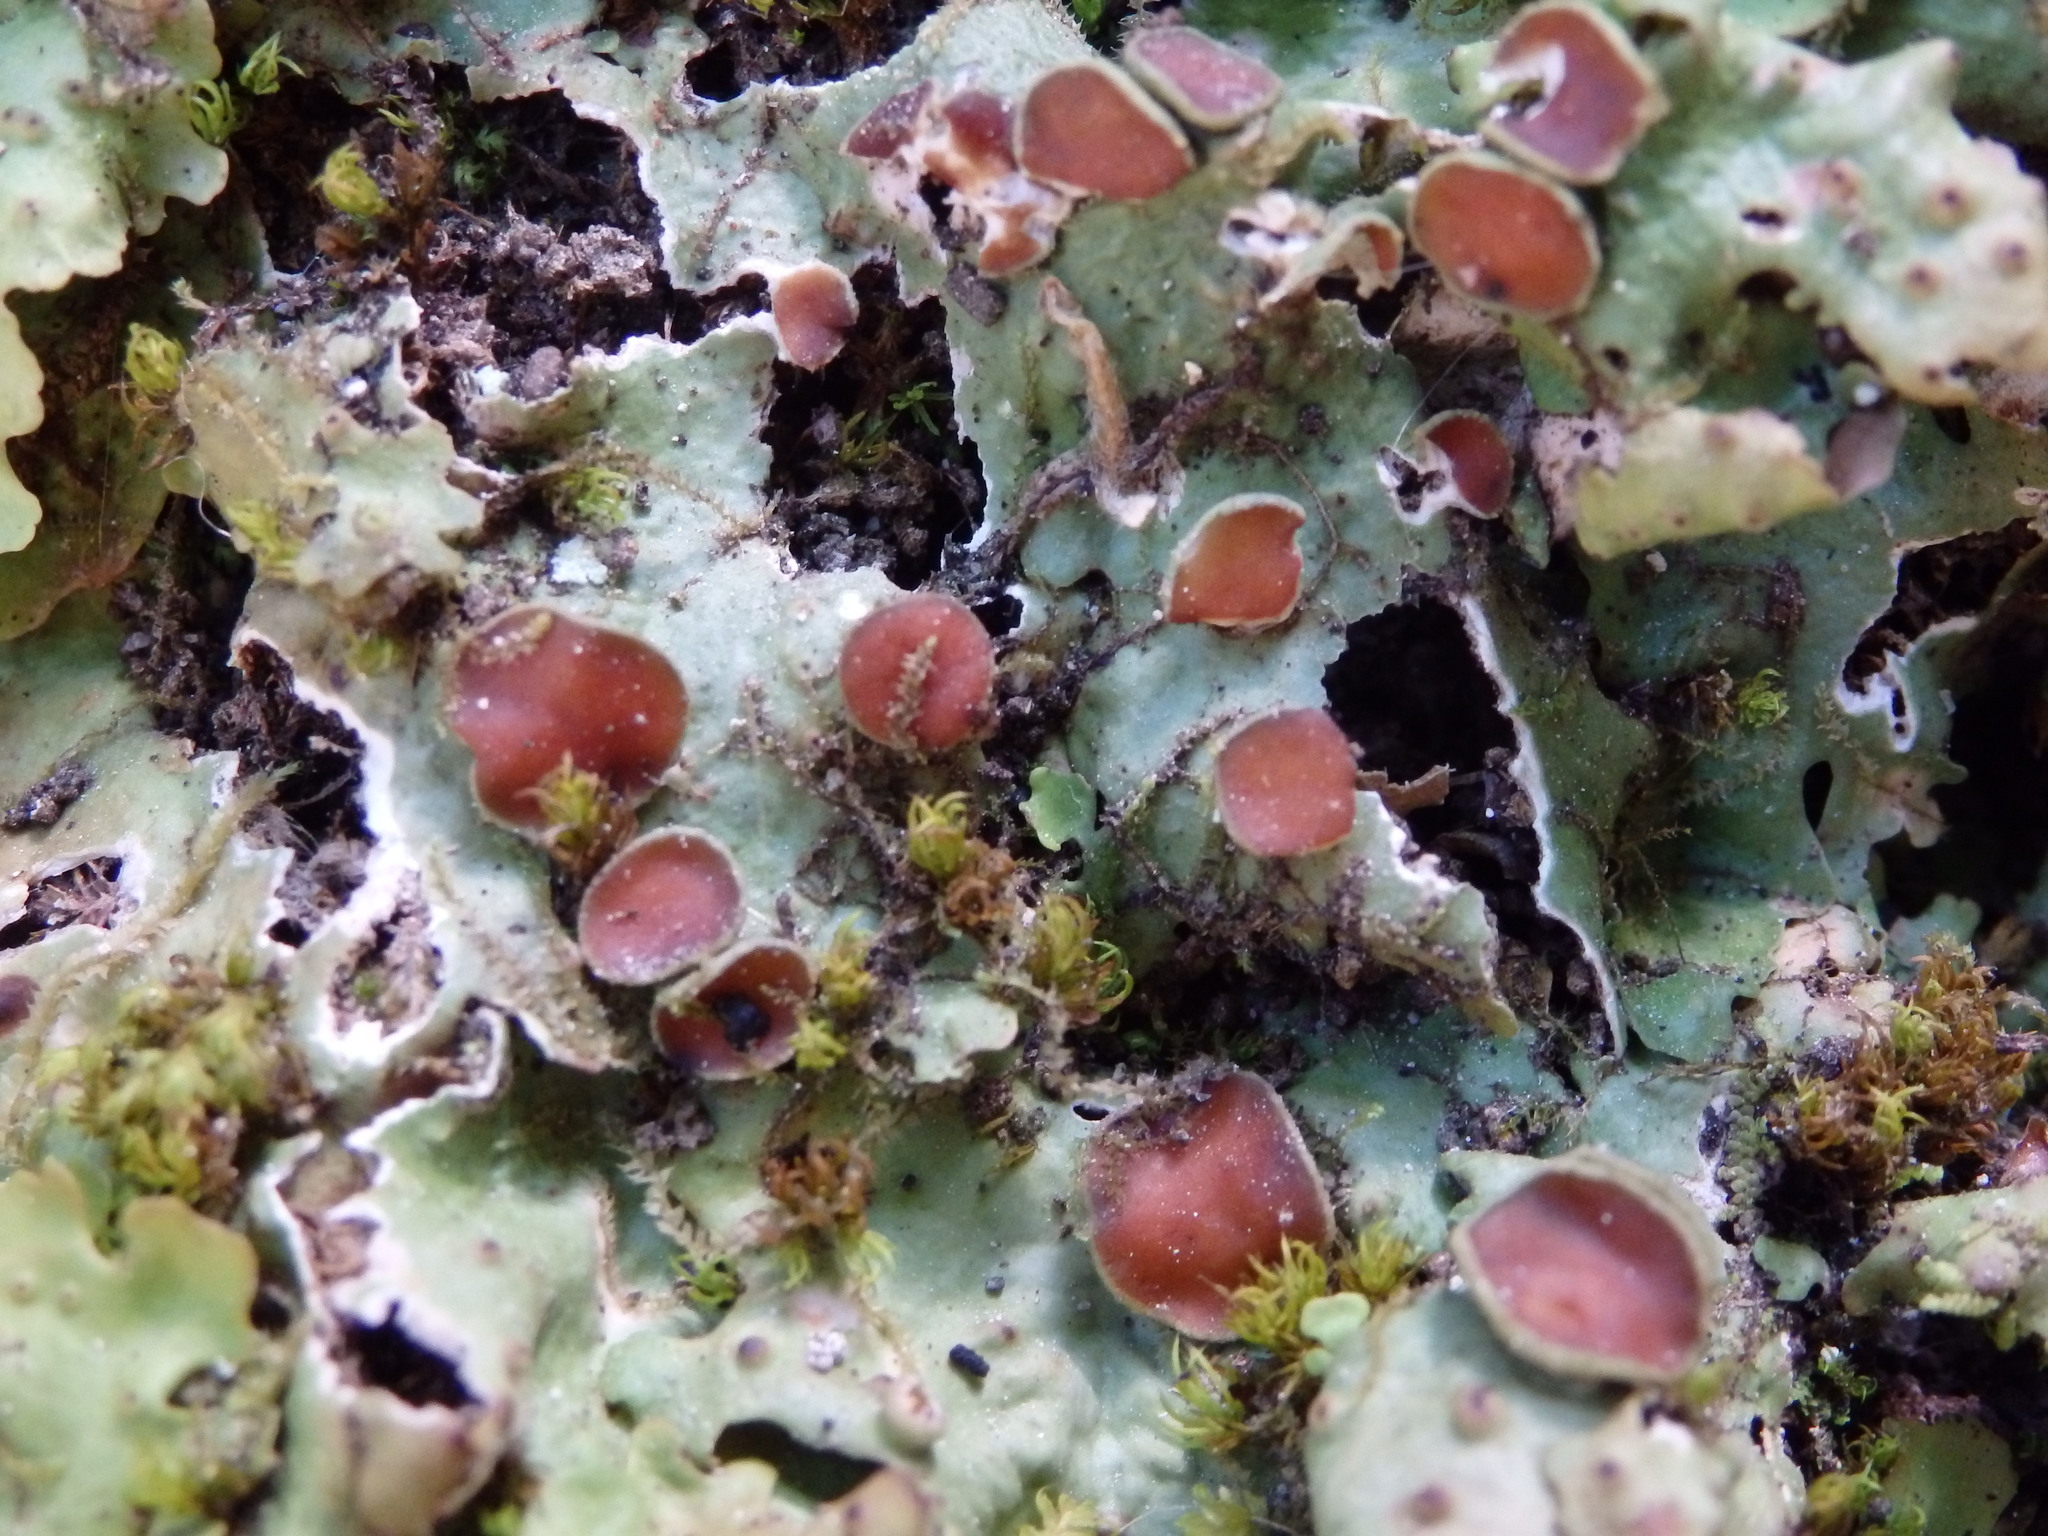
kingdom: Fungi
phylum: Ascomycota
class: Lecanoromycetes
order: Peltigerales
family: Lobariaceae
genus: Ricasolia
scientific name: Ricasolia virens
